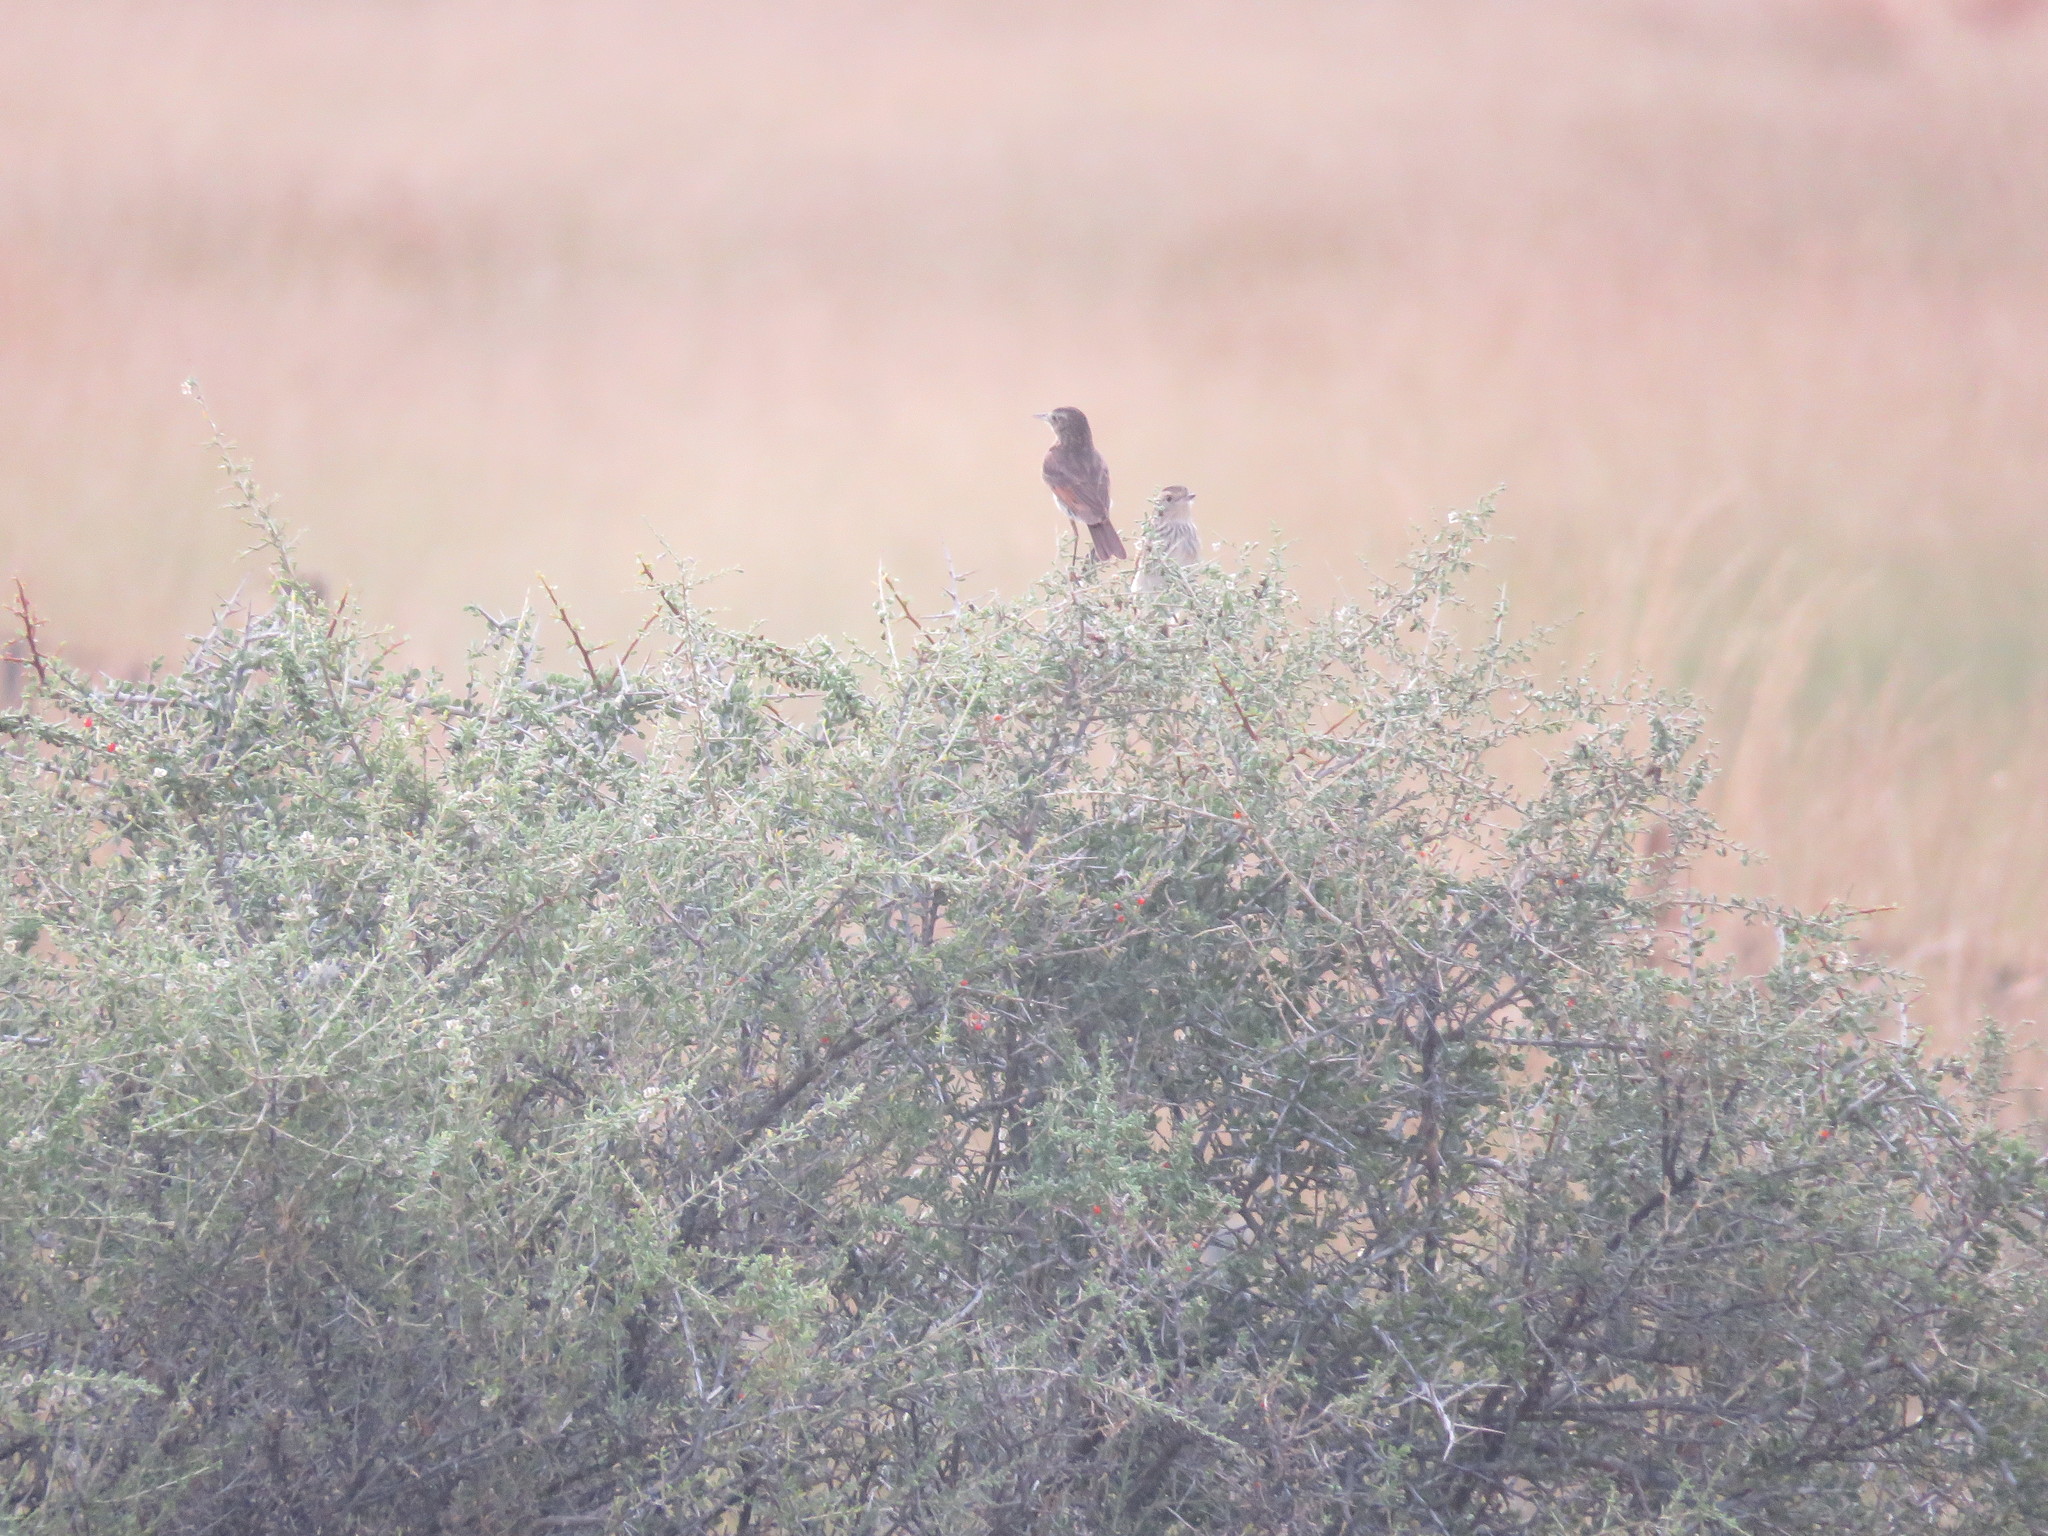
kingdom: Animalia
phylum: Chordata
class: Aves
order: Passeriformes
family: Tyrannidae
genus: Hymenops
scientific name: Hymenops perspicillatus
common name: Spectacled tyrant
